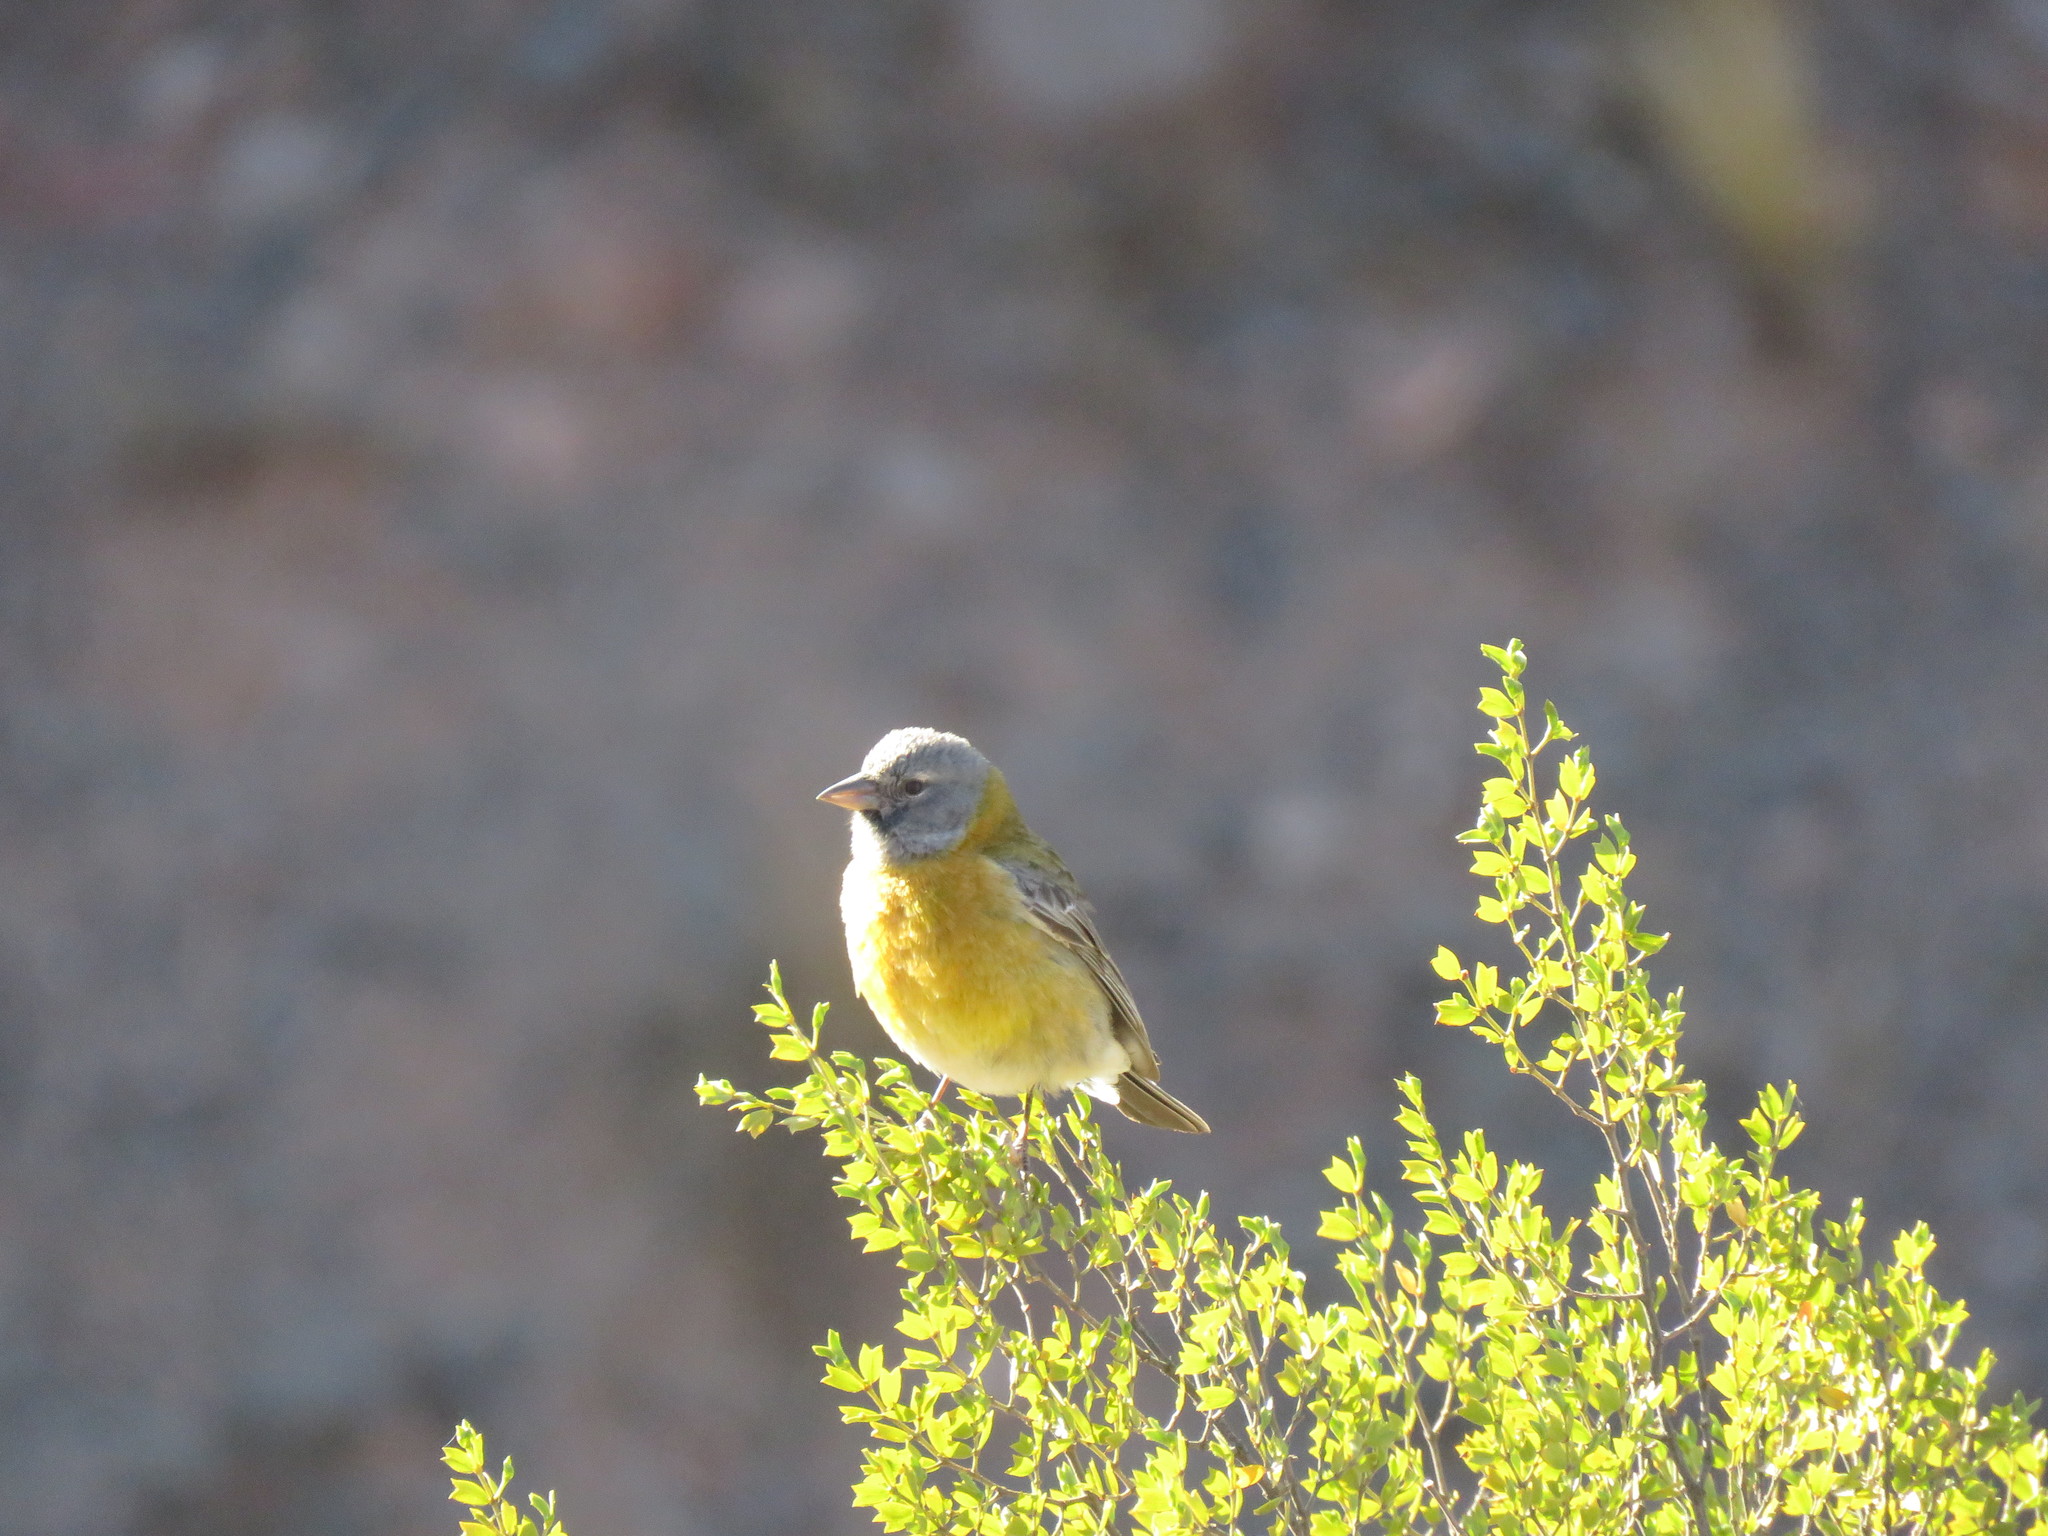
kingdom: Animalia
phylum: Chordata
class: Aves
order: Passeriformes
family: Thraupidae
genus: Phrygilus
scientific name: Phrygilus gayi
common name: Grey-hooded sierra finch
